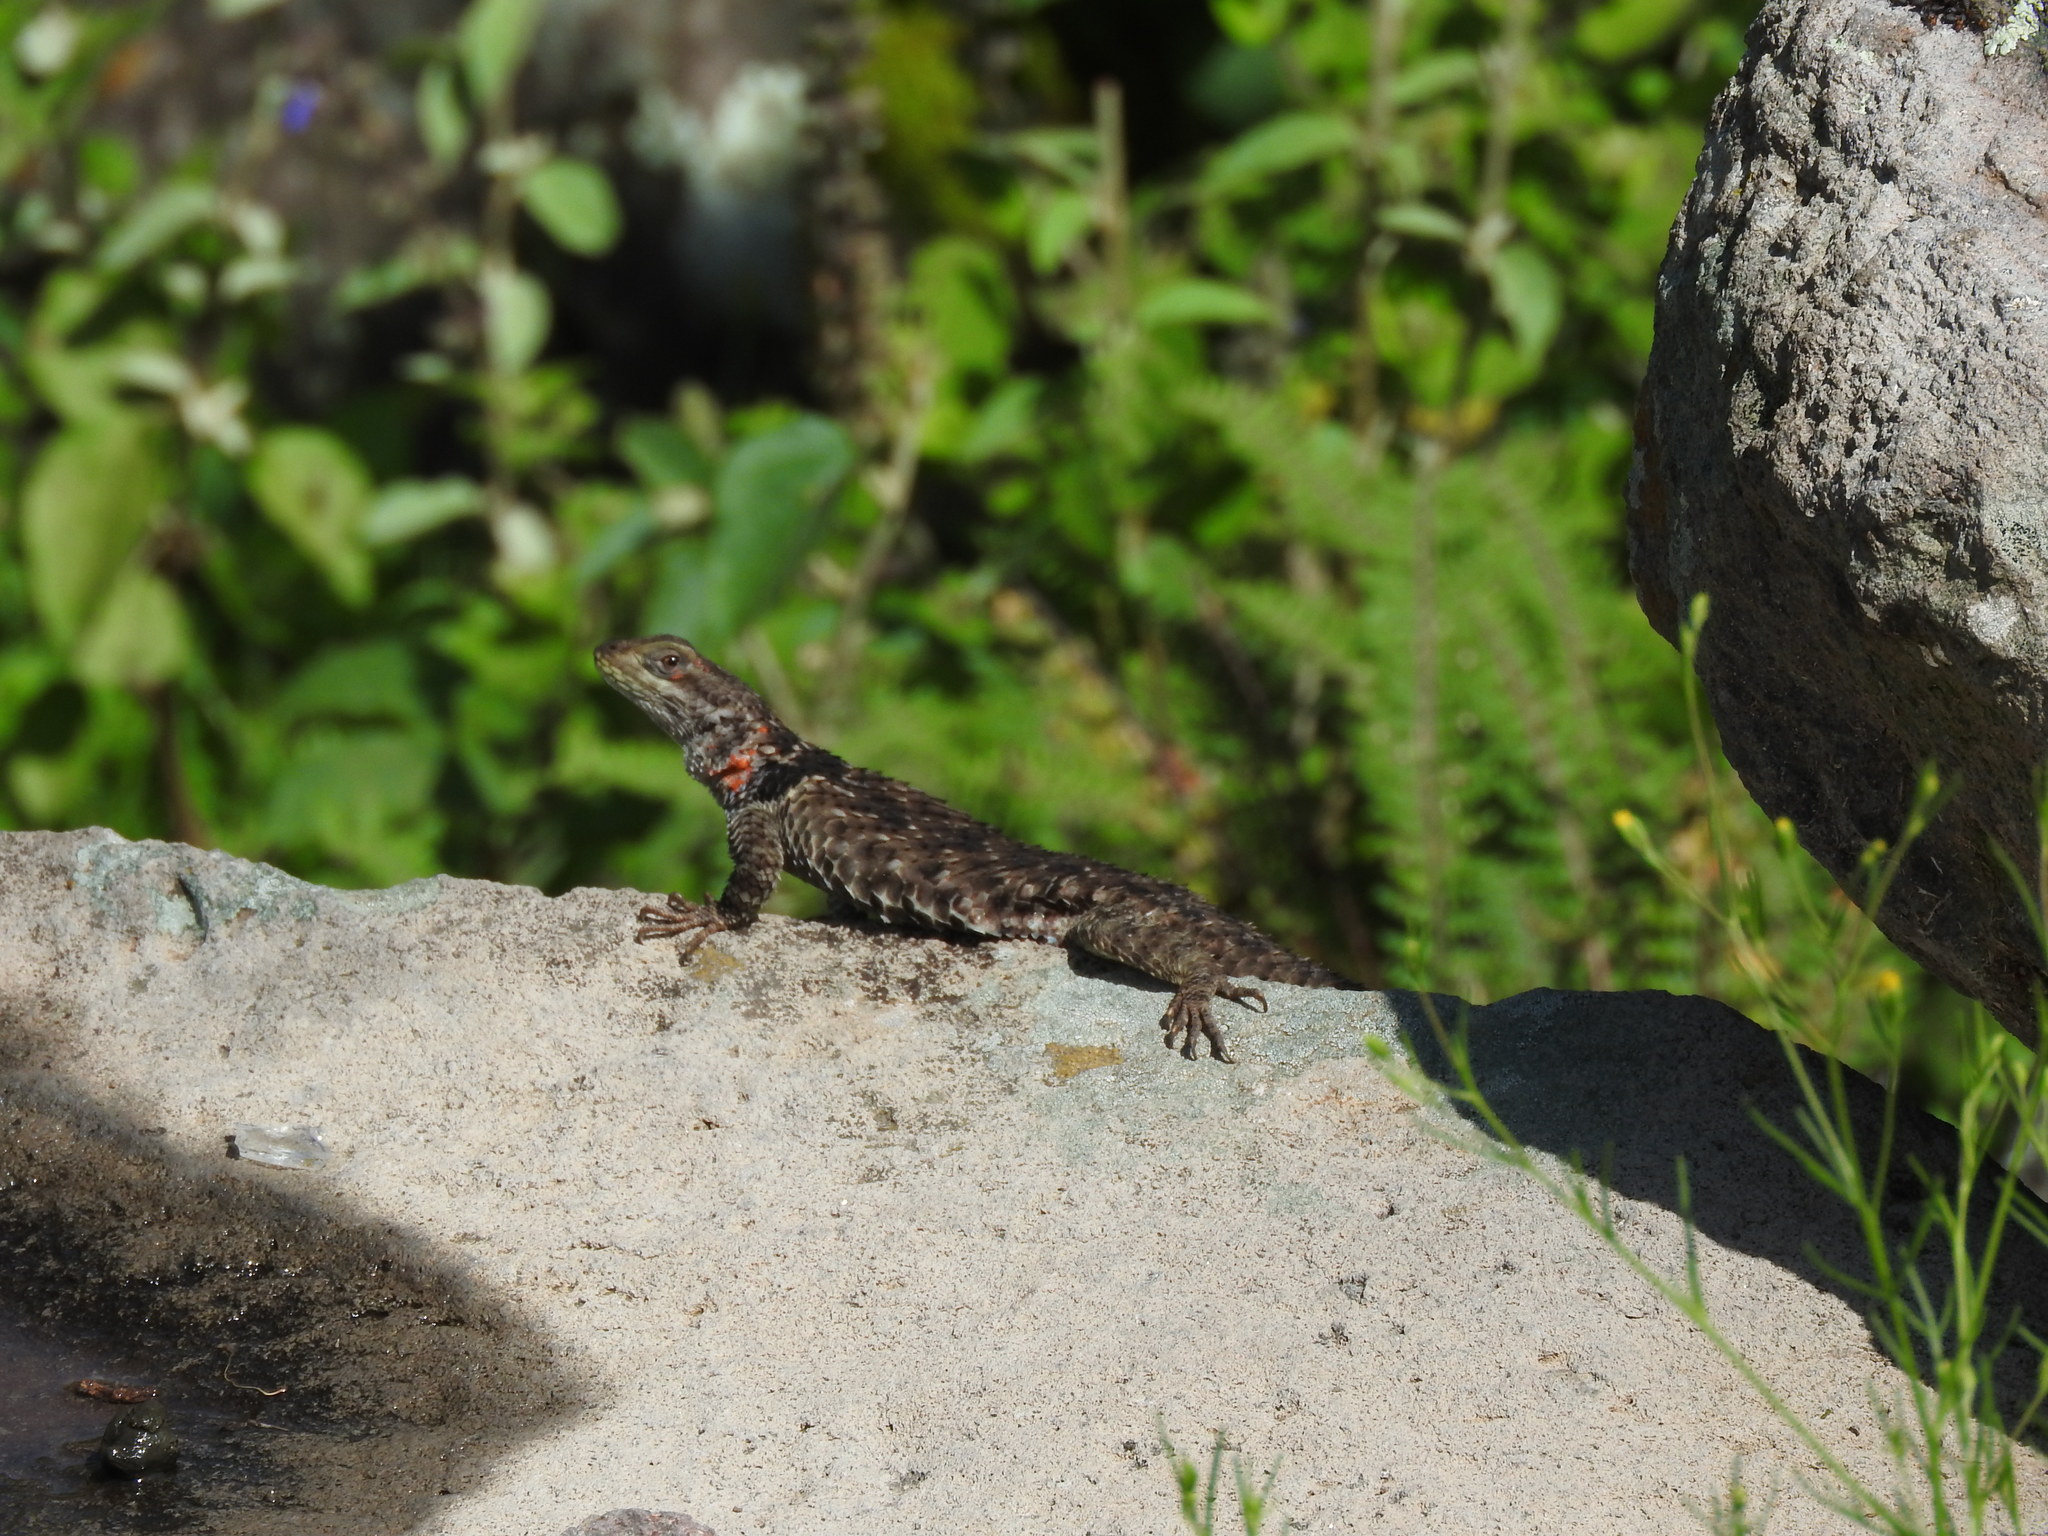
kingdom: Animalia
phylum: Chordata
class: Squamata
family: Phrynosomatidae
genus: Sceloporus
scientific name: Sceloporus torquatus
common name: Central plateau torquate lizard [melanogaster]
